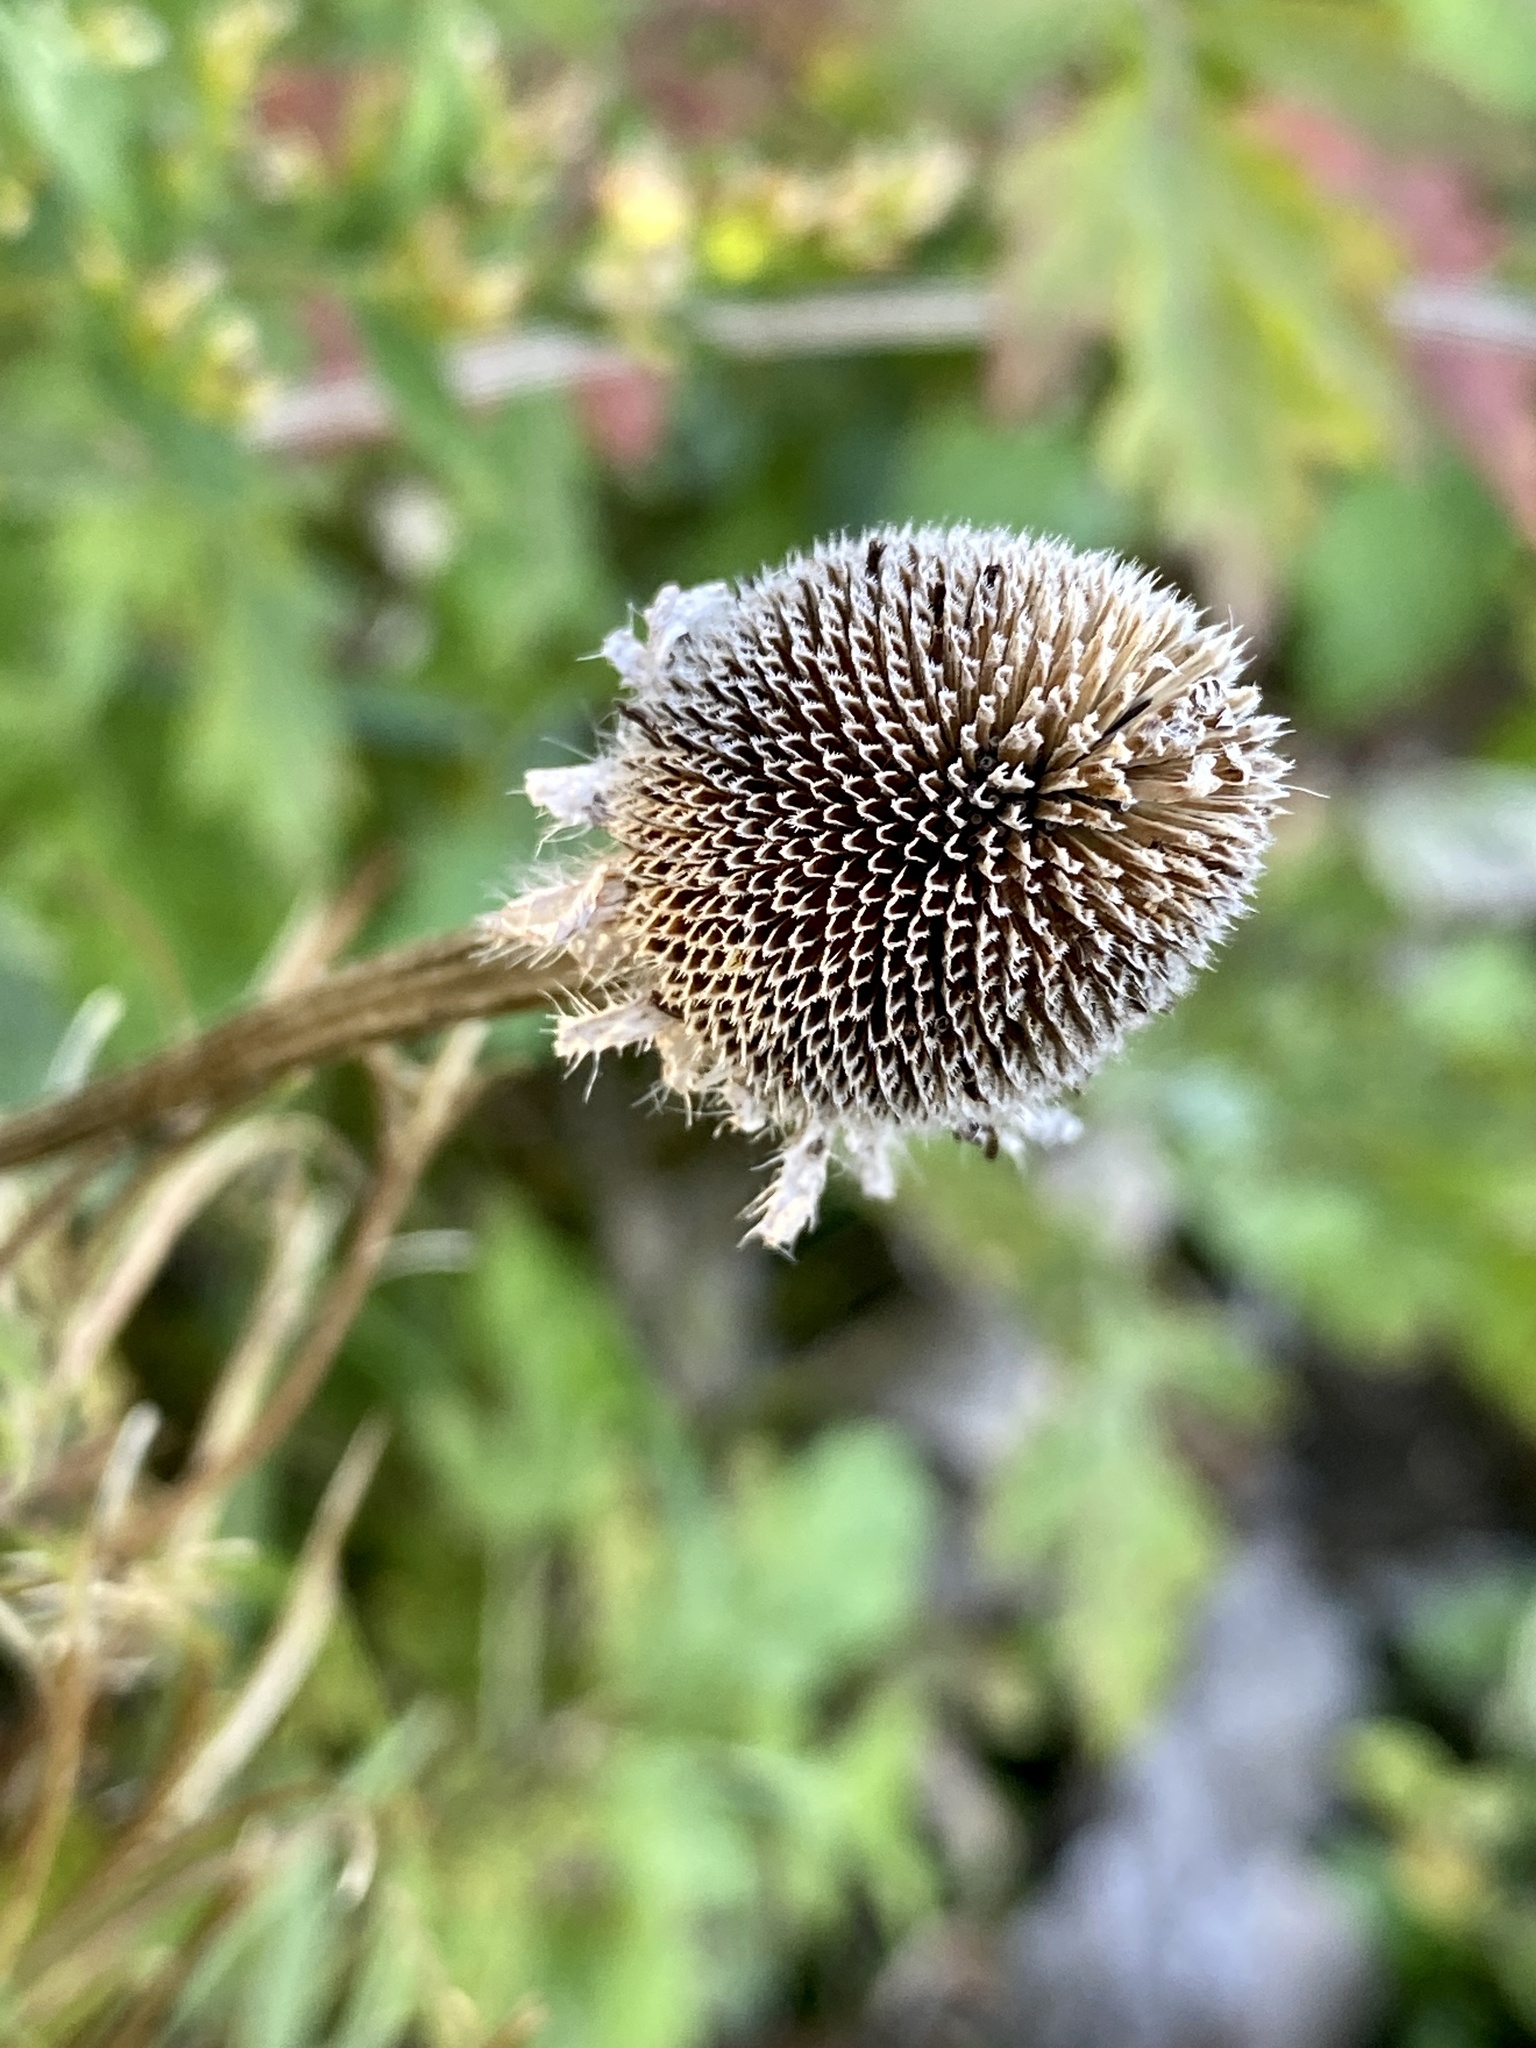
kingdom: Plantae
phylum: Tracheophyta
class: Magnoliopsida
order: Asterales
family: Asteraceae
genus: Rudbeckia
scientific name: Rudbeckia hirta
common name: Black-eyed-susan
